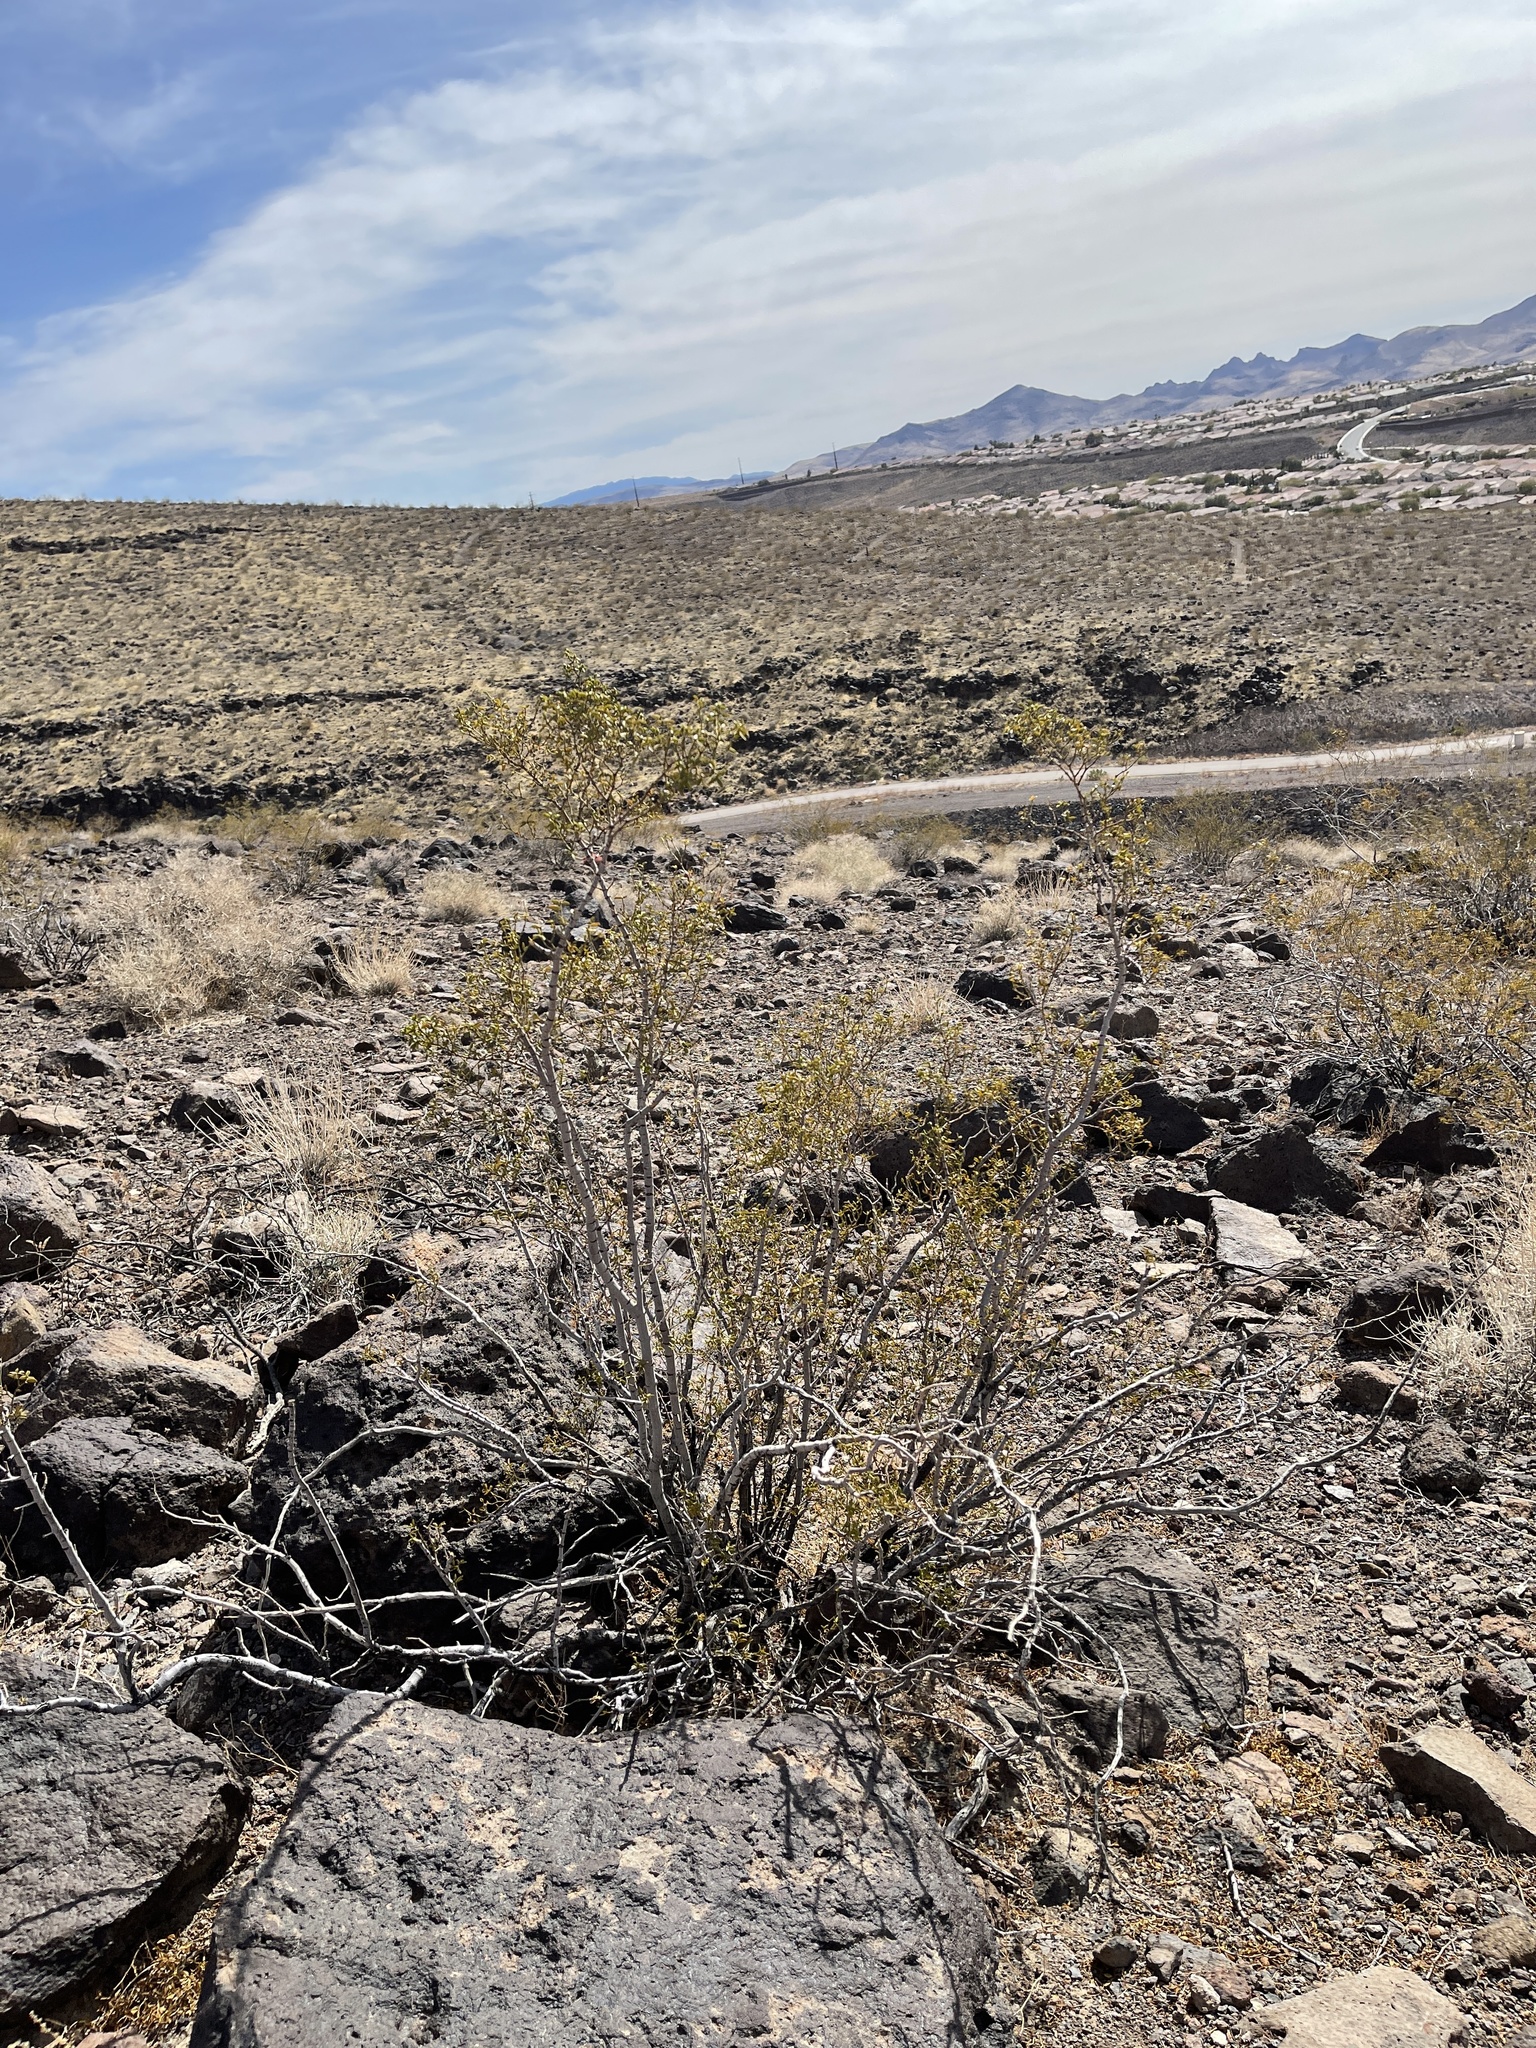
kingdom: Plantae
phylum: Tracheophyta
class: Magnoliopsida
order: Zygophyllales
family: Zygophyllaceae
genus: Larrea
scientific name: Larrea tridentata
